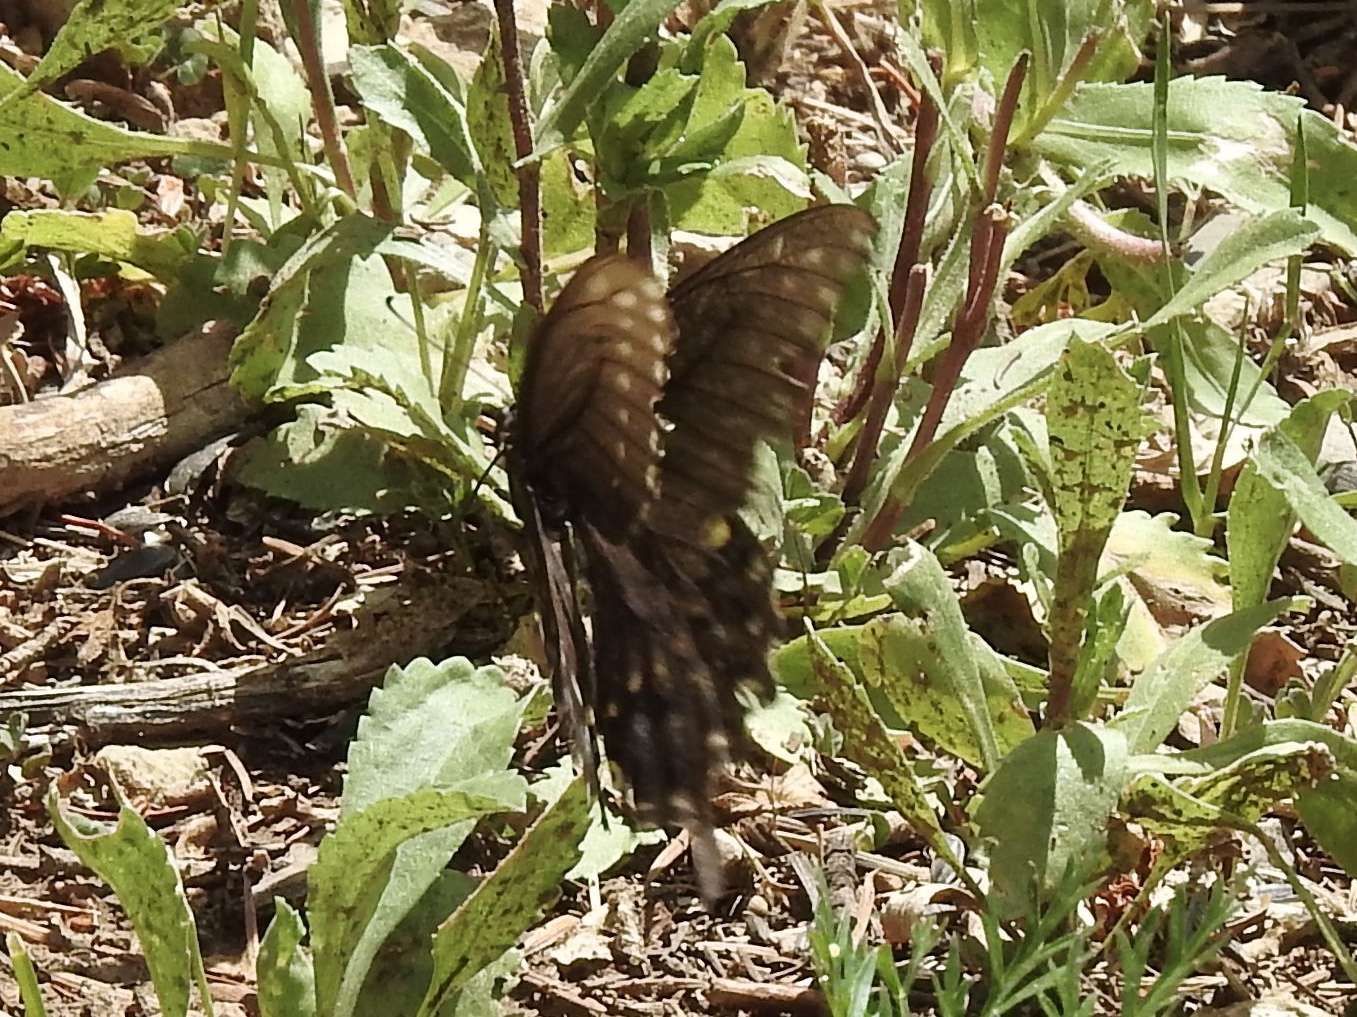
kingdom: Animalia
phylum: Arthropoda
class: Insecta
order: Lepidoptera
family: Papilionidae
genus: Papilio
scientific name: Papilio polyxenes
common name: Black swallowtail
